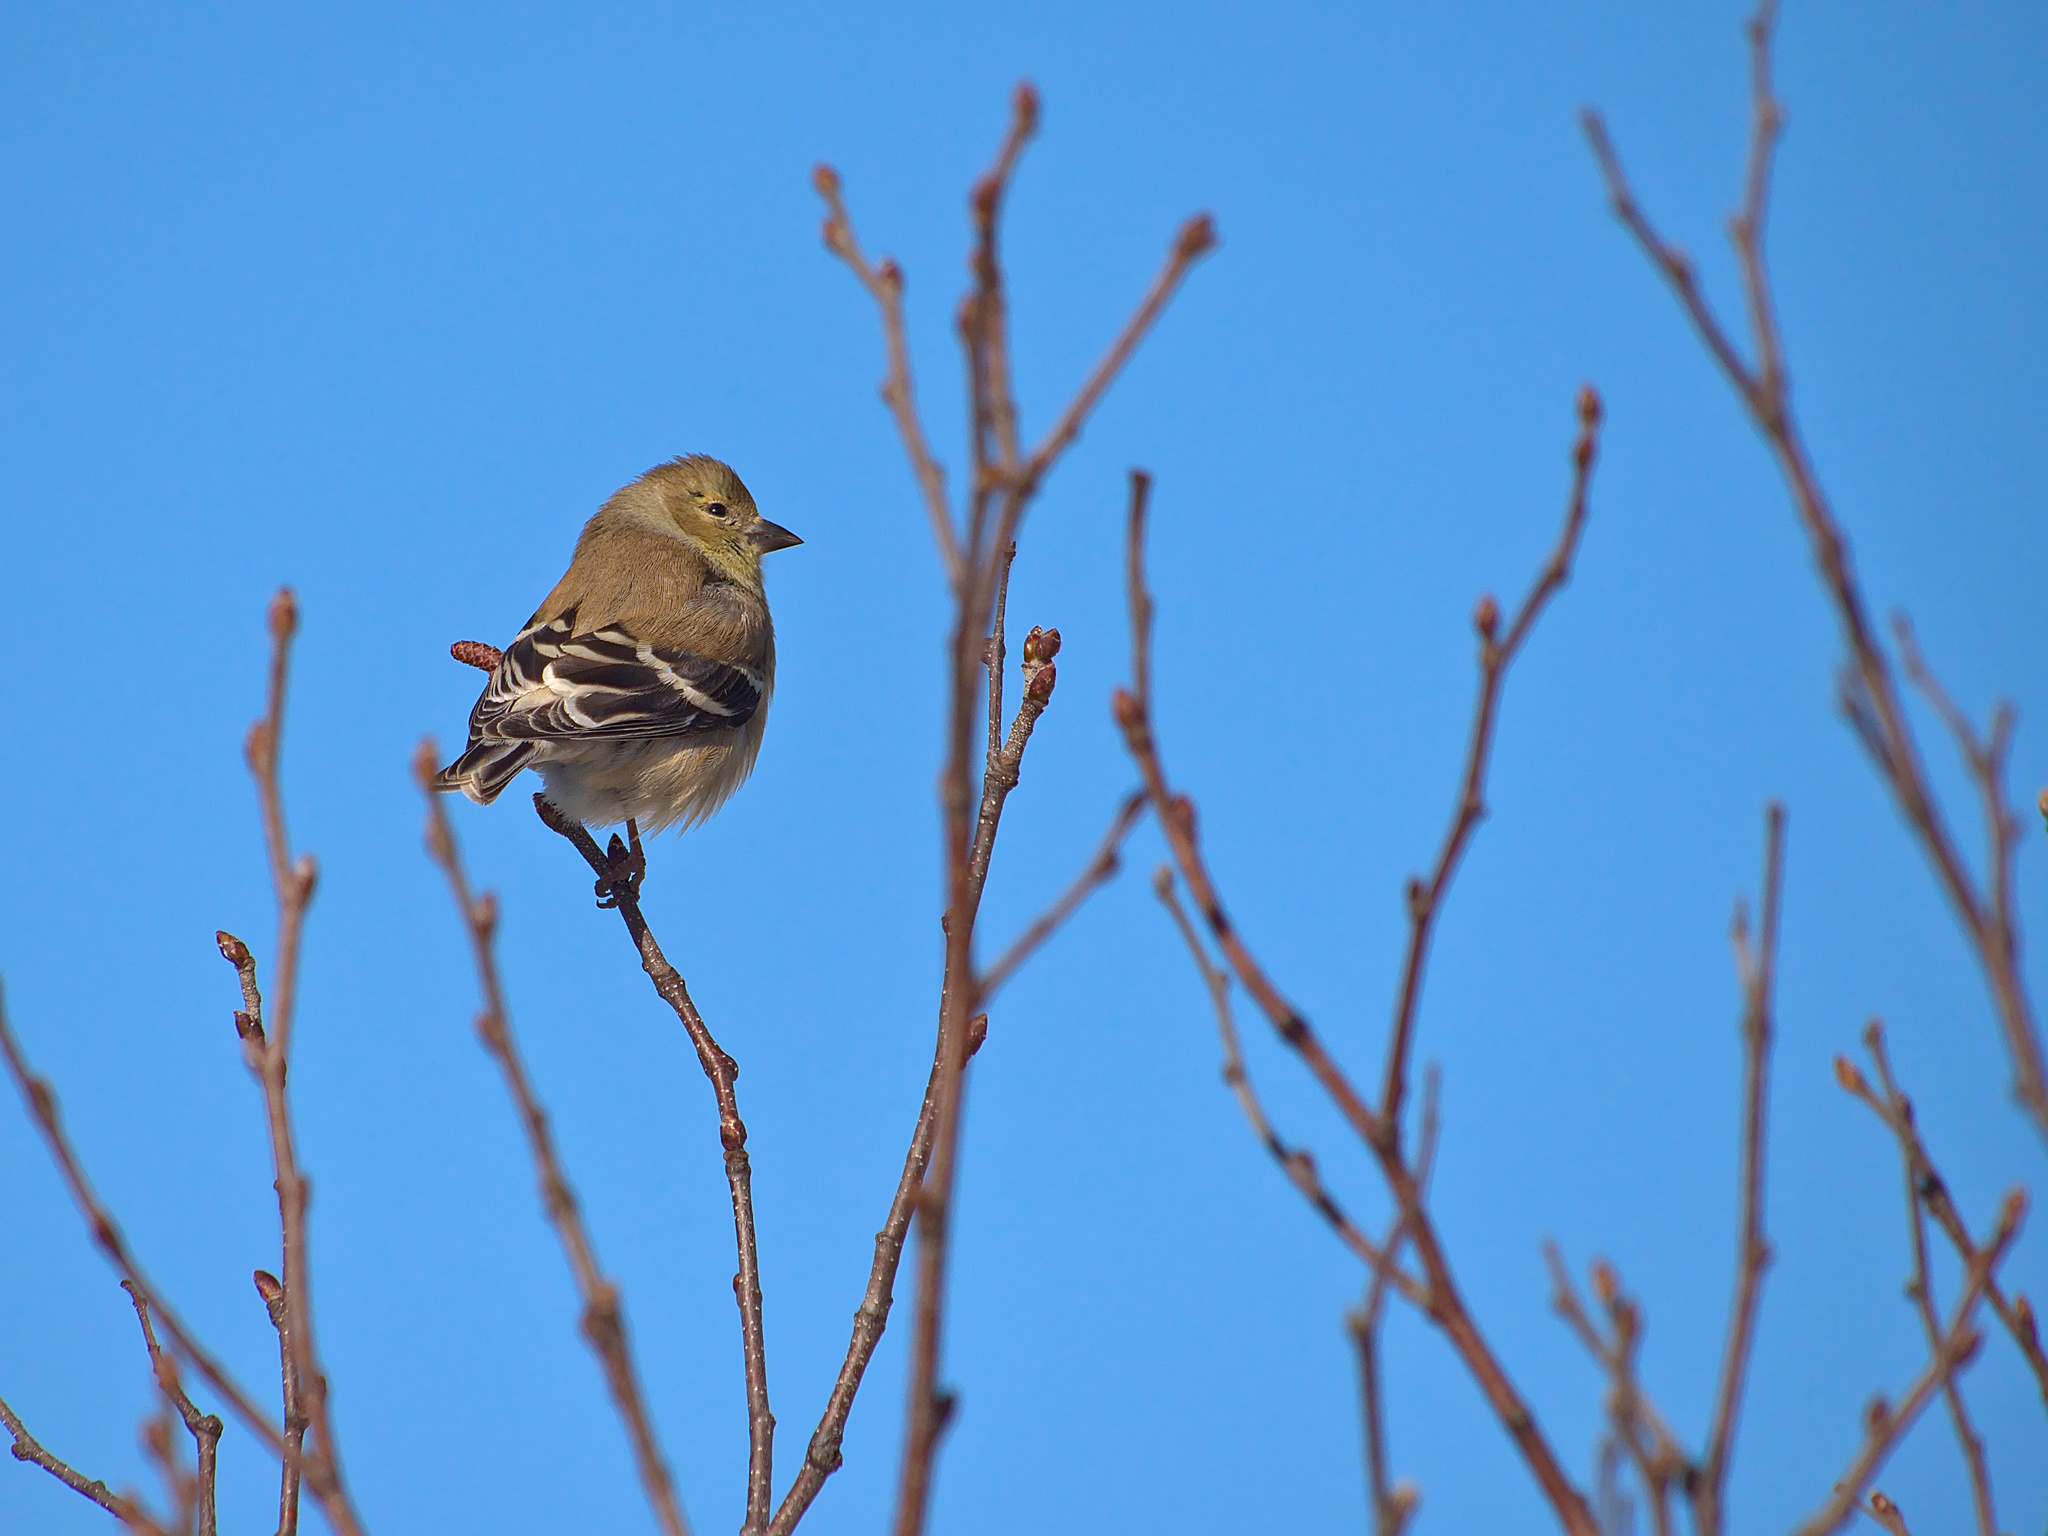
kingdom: Animalia
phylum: Chordata
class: Aves
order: Passeriformes
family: Fringillidae
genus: Spinus
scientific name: Spinus tristis
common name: American goldfinch
